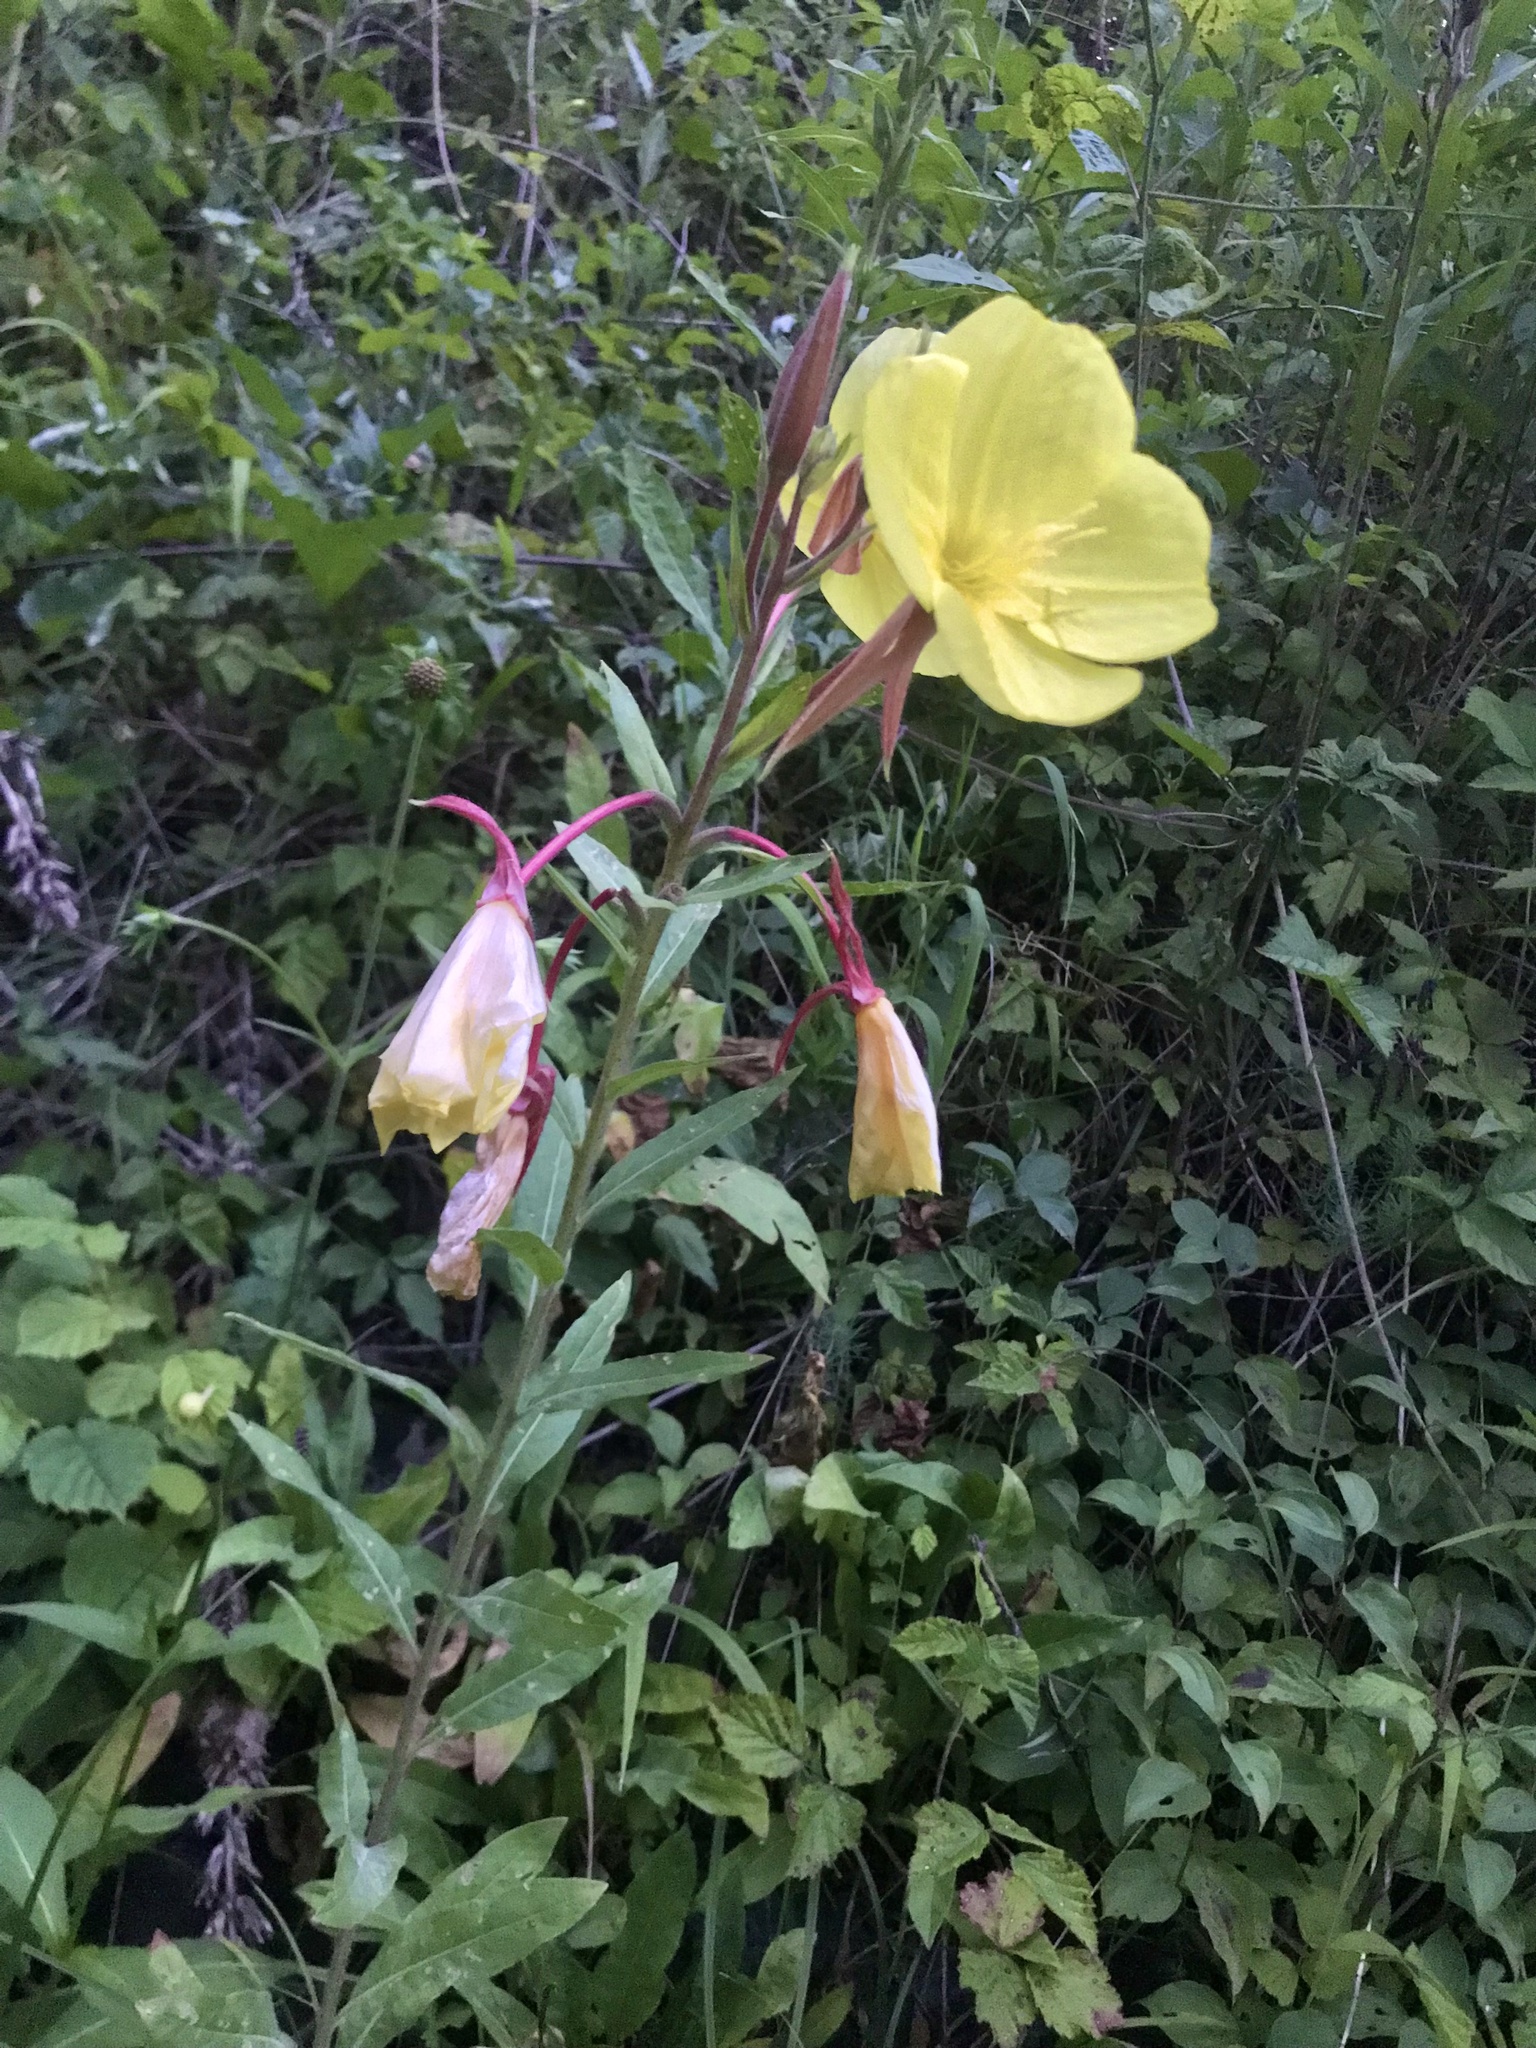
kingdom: Plantae
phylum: Tracheophyta
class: Magnoliopsida
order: Myrtales
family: Onagraceae
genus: Oenothera
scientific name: Oenothera glazioviana
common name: Large-flowered evening-primrose
